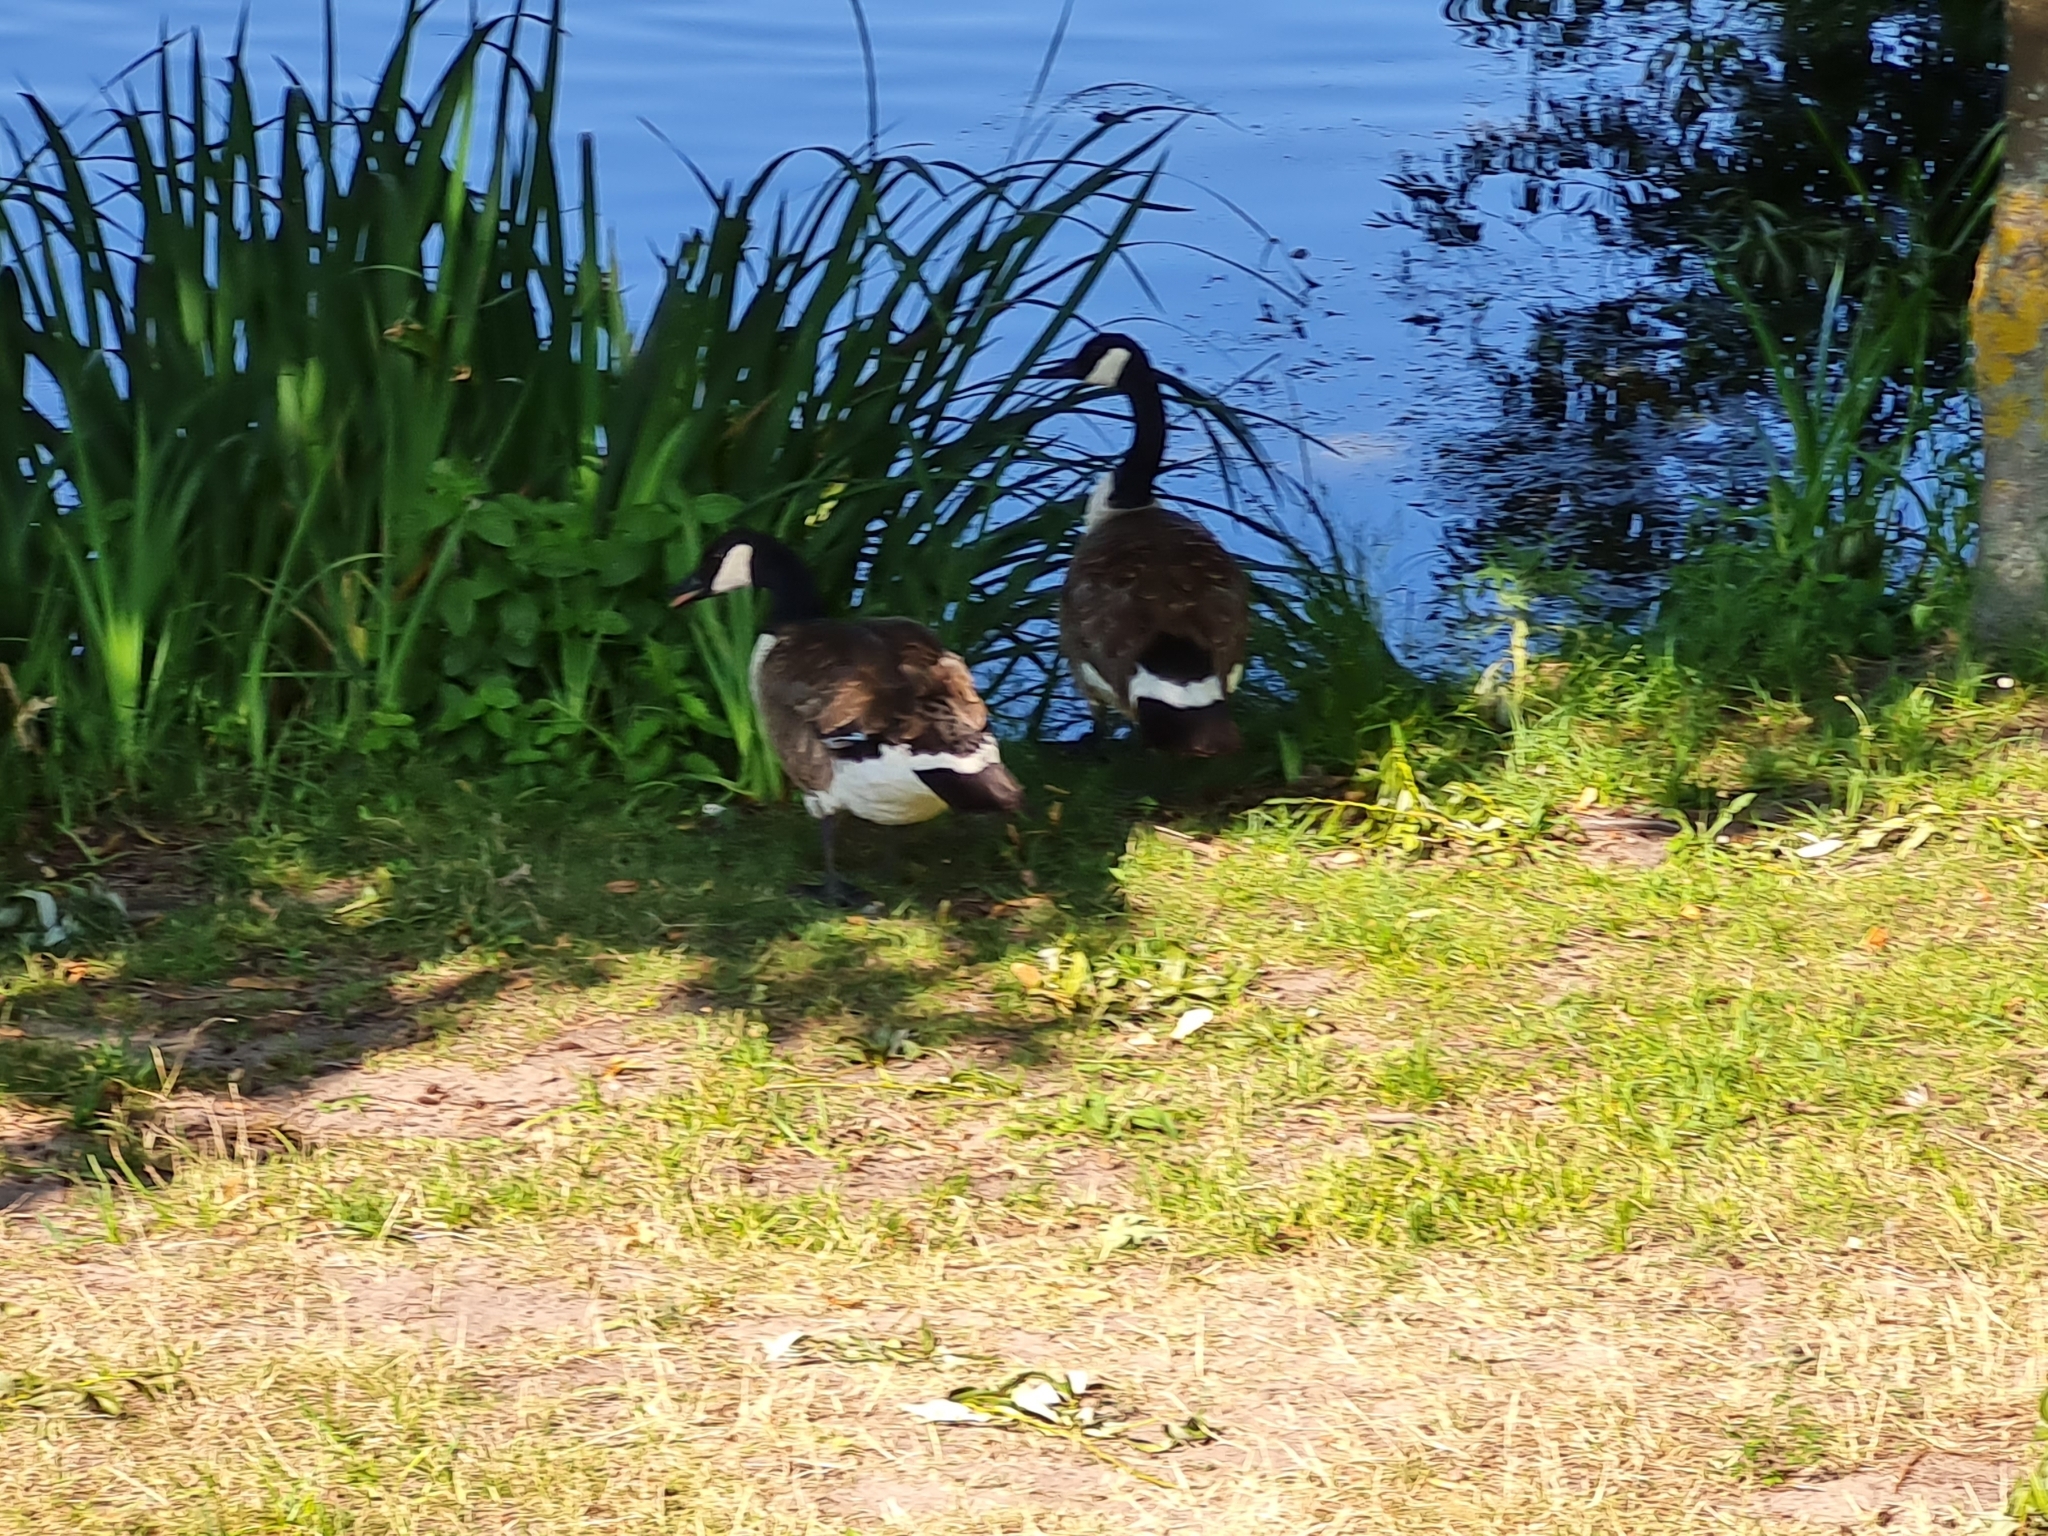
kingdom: Animalia
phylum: Chordata
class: Aves
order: Anseriformes
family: Anatidae
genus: Branta
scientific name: Branta canadensis
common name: Canada goose
